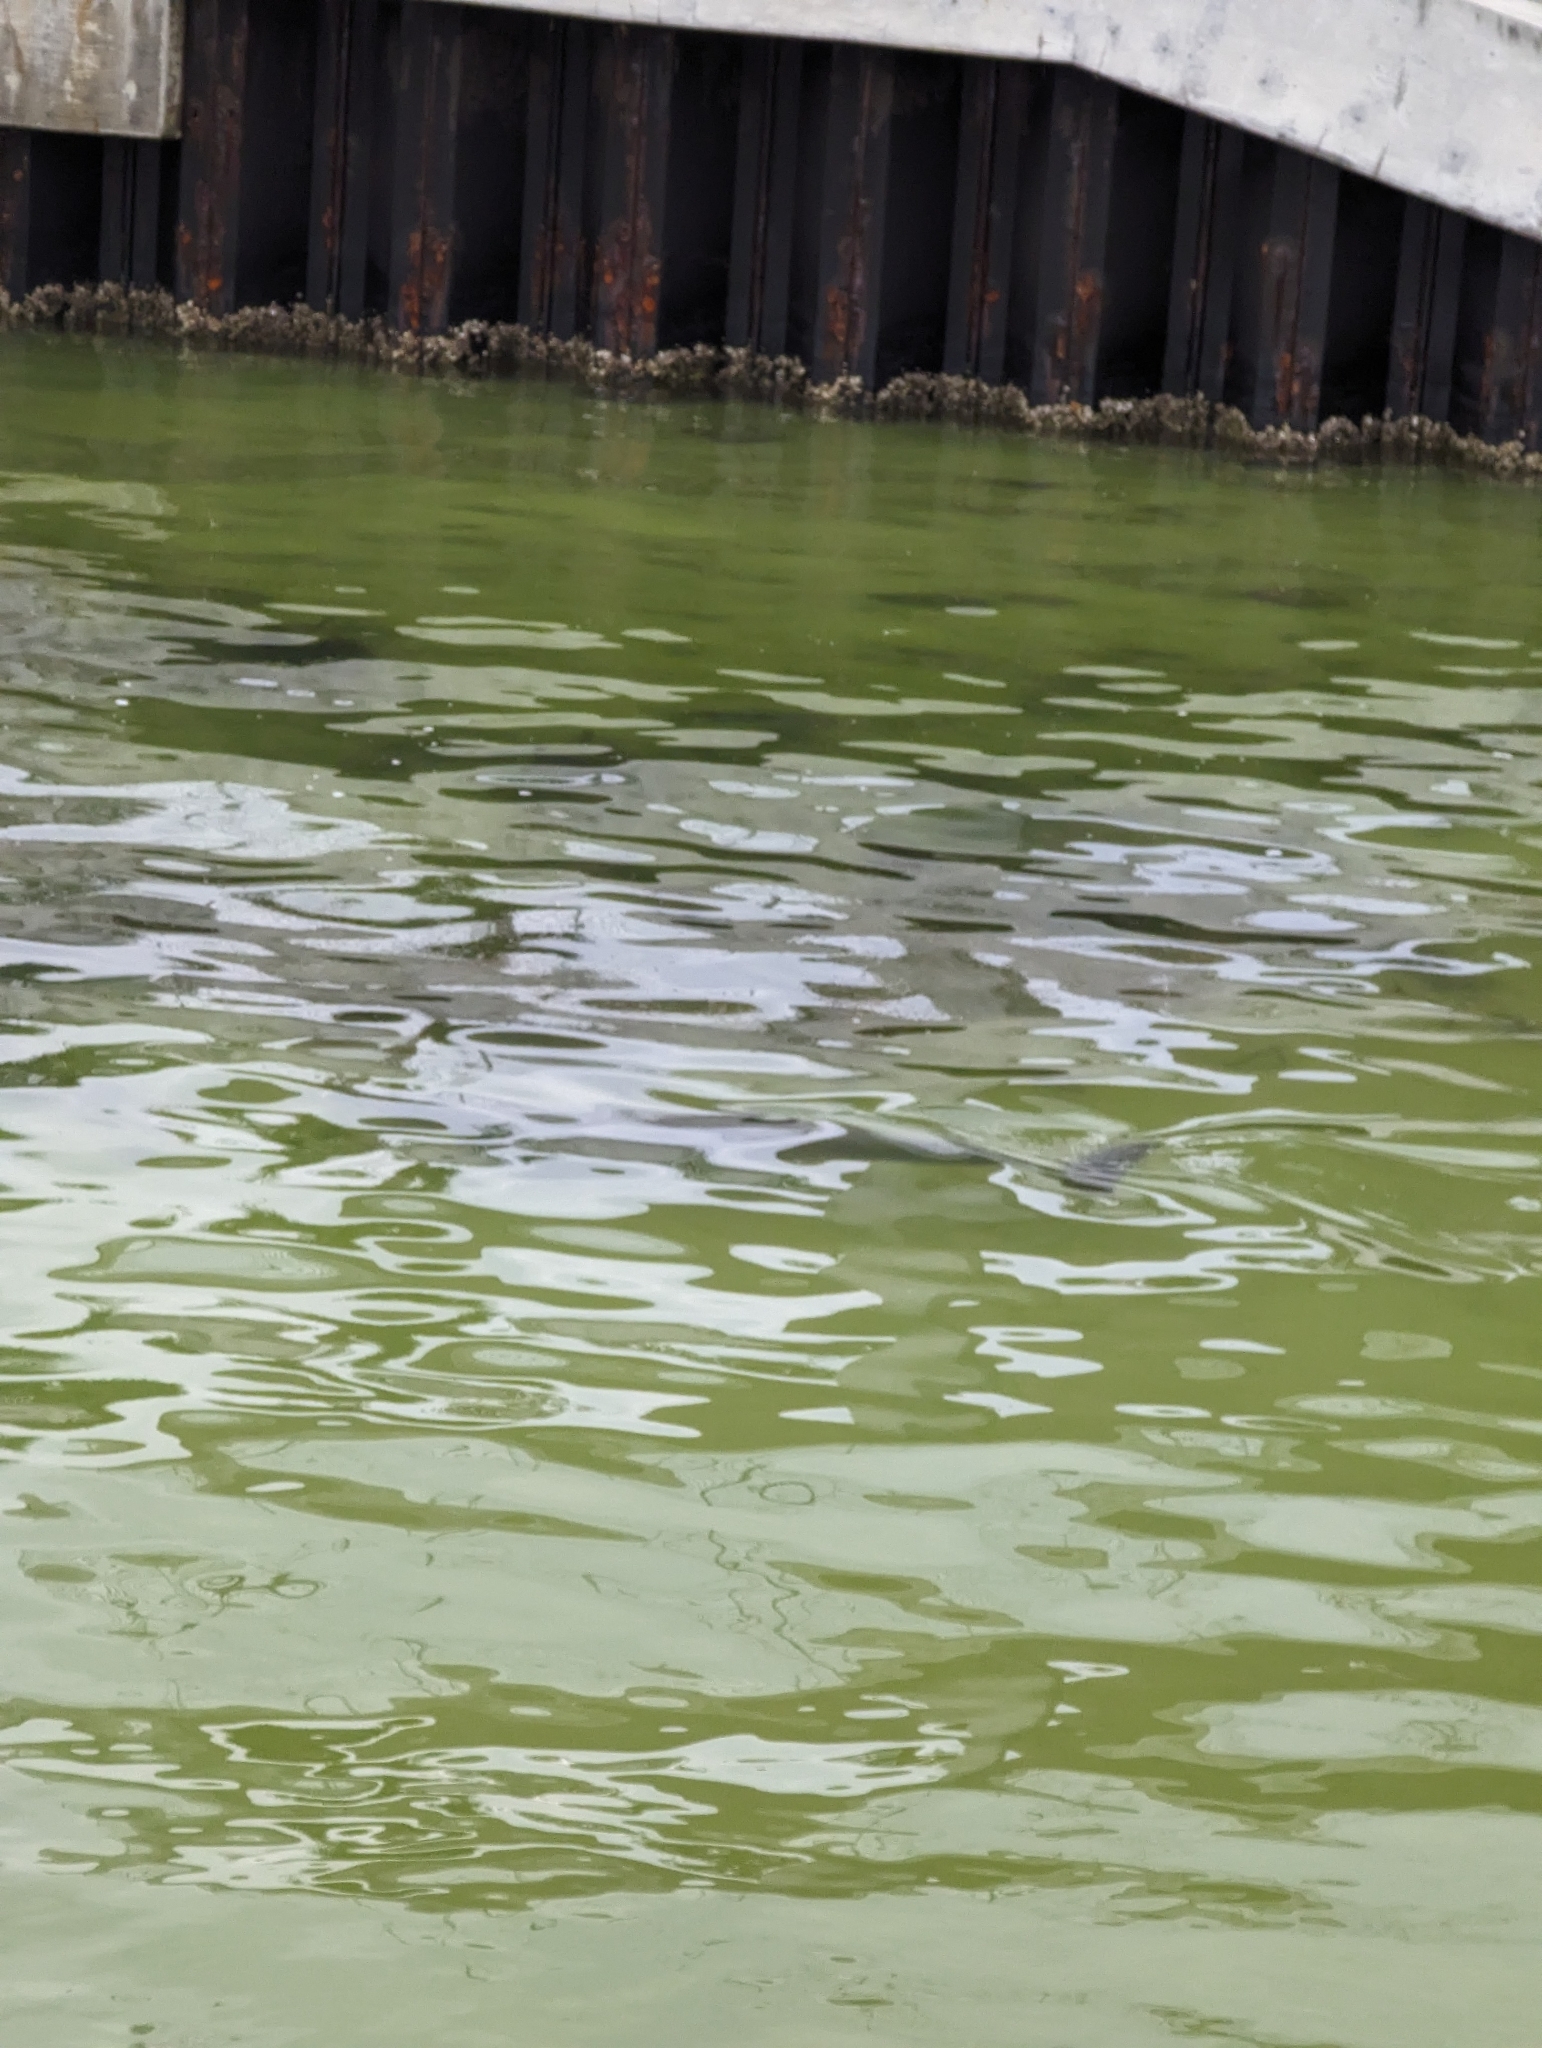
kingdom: Animalia
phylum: Chordata
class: Mammalia
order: Cetacea
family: Delphinidae
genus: Tursiops
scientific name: Tursiops truncatus
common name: Bottlenose dolphin
